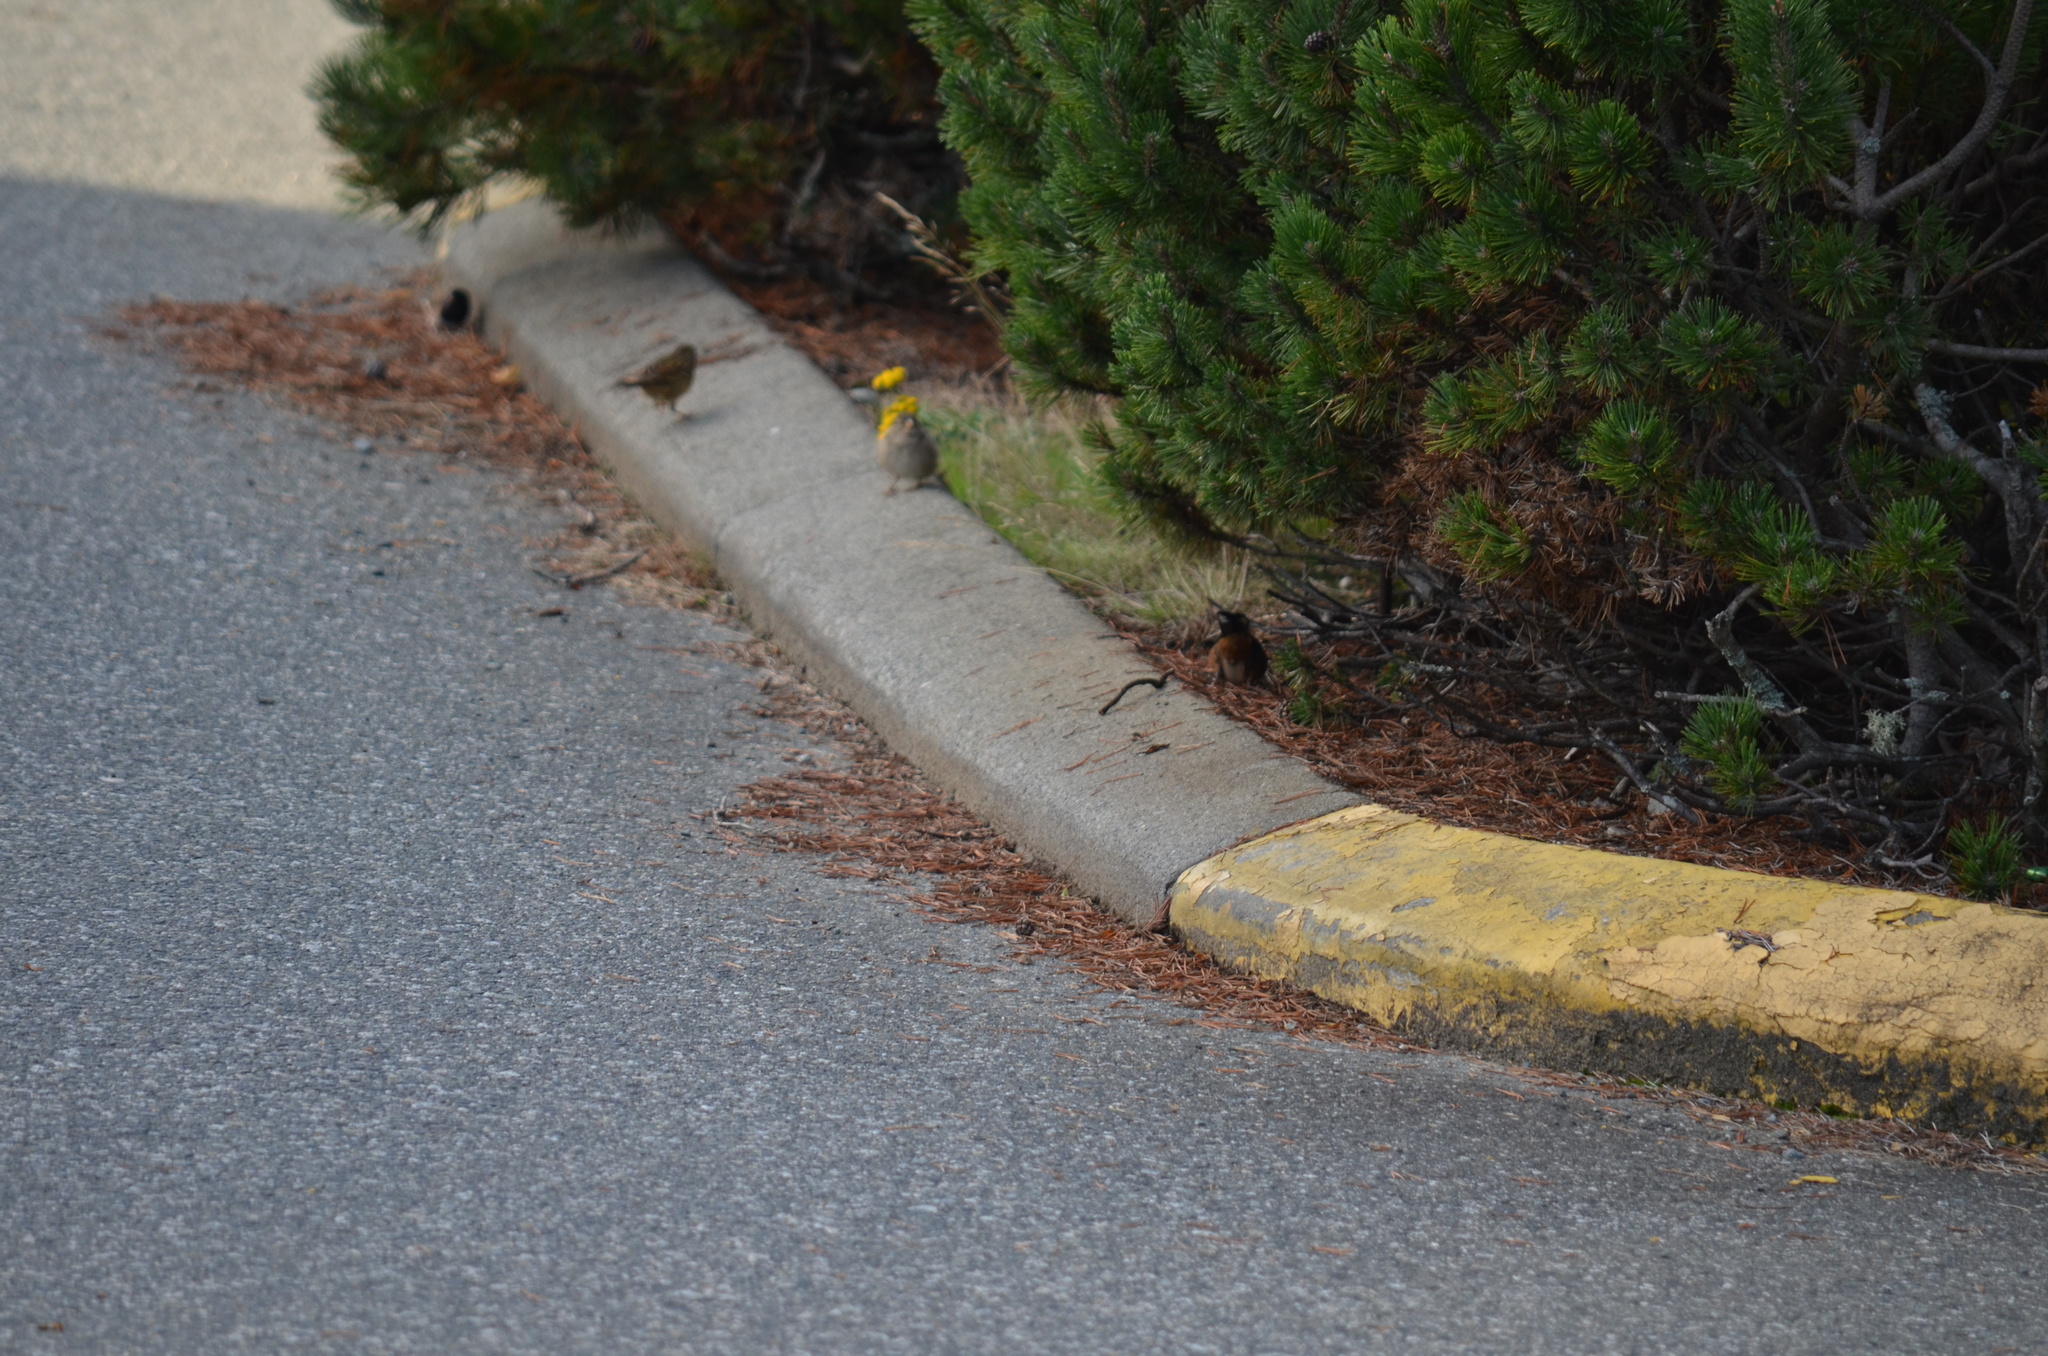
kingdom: Animalia
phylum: Chordata
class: Aves
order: Passeriformes
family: Passerellidae
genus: Pipilo
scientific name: Pipilo maculatus
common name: Spotted towhee
